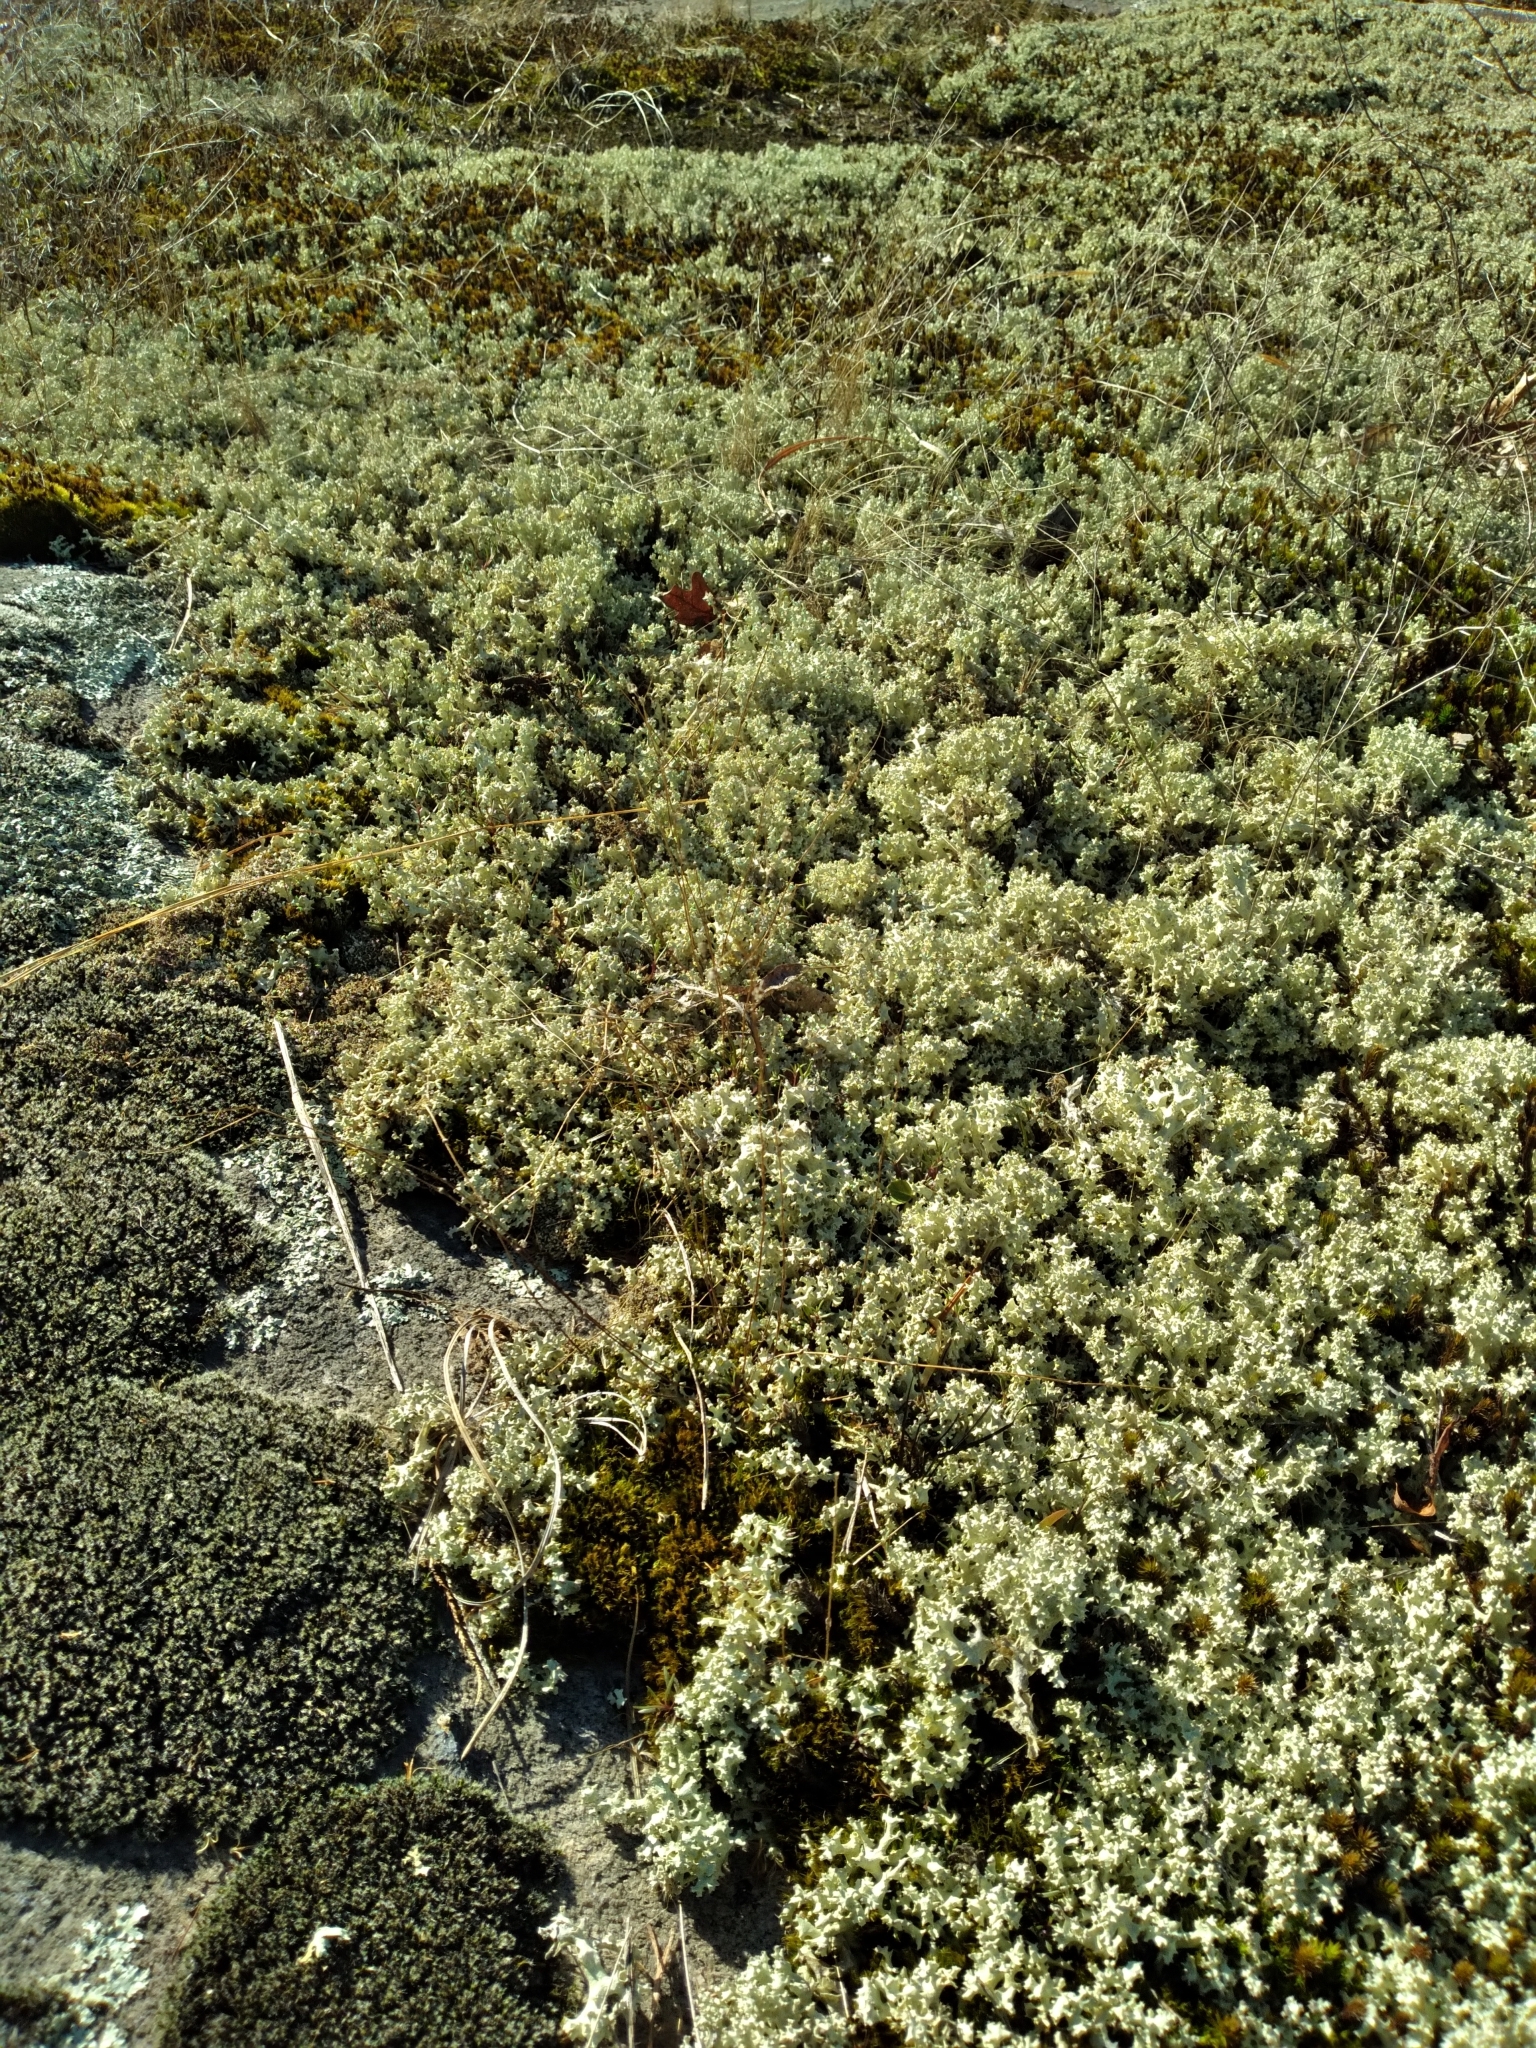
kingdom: Fungi
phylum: Ascomycota
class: Lecanoromycetes
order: Lecanorales
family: Cladoniaceae
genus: Cladonia
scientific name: Cladonia caroliniana
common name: Granite thorn
